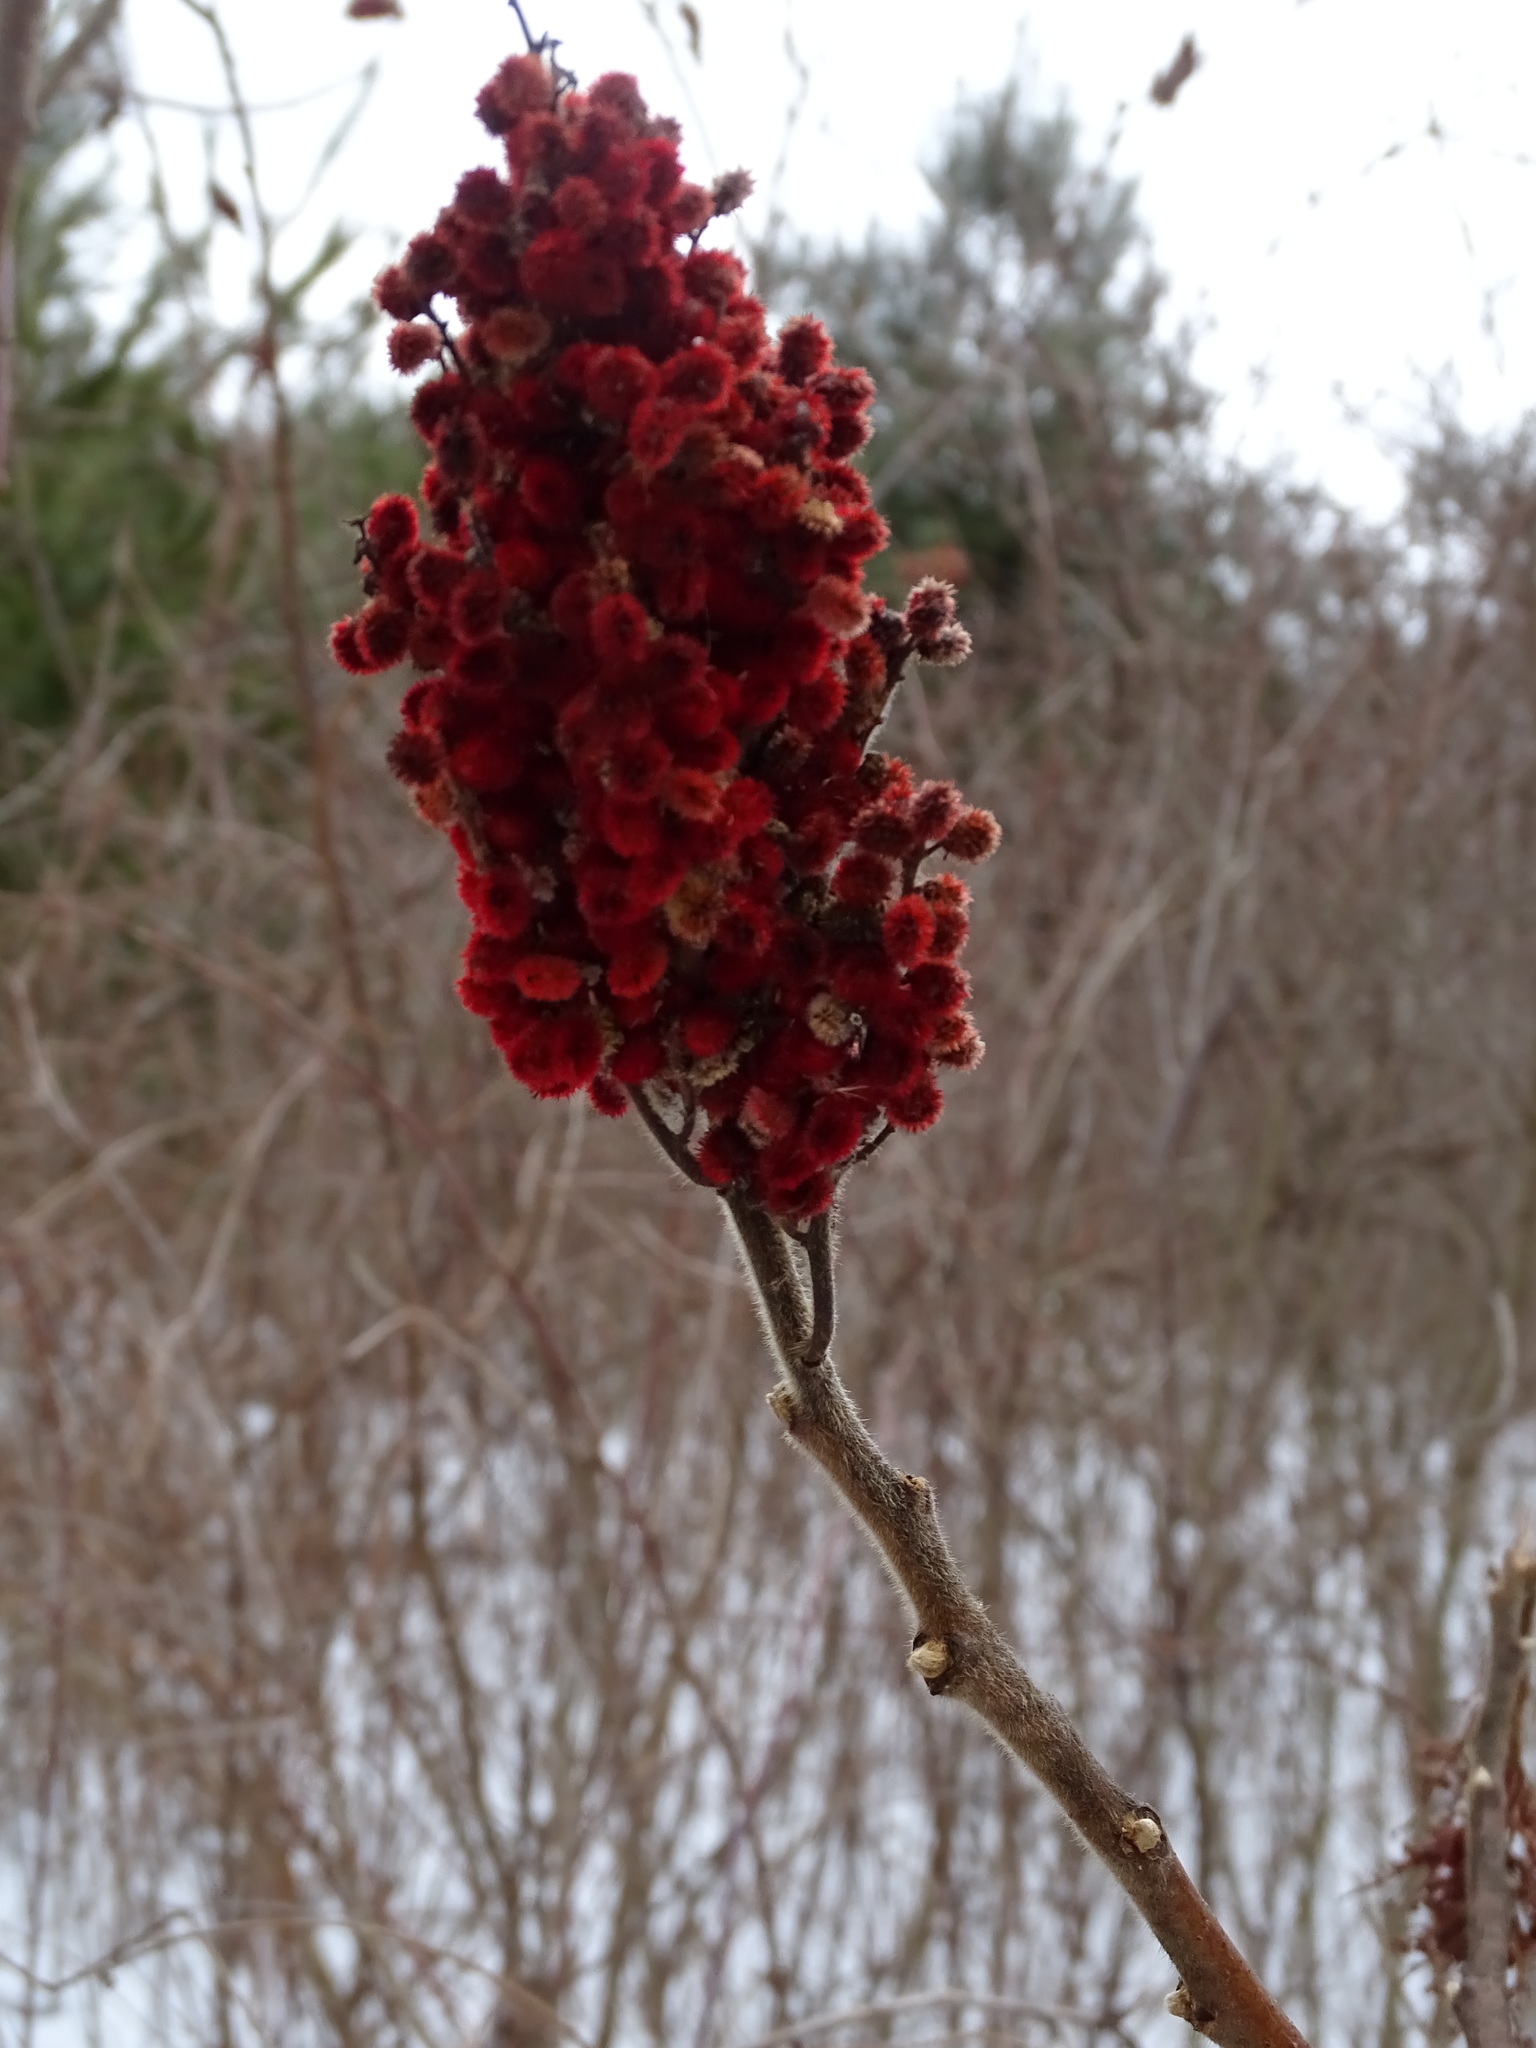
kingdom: Plantae
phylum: Tracheophyta
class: Magnoliopsida
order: Sapindales
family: Anacardiaceae
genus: Rhus
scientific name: Rhus typhina
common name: Staghorn sumac
